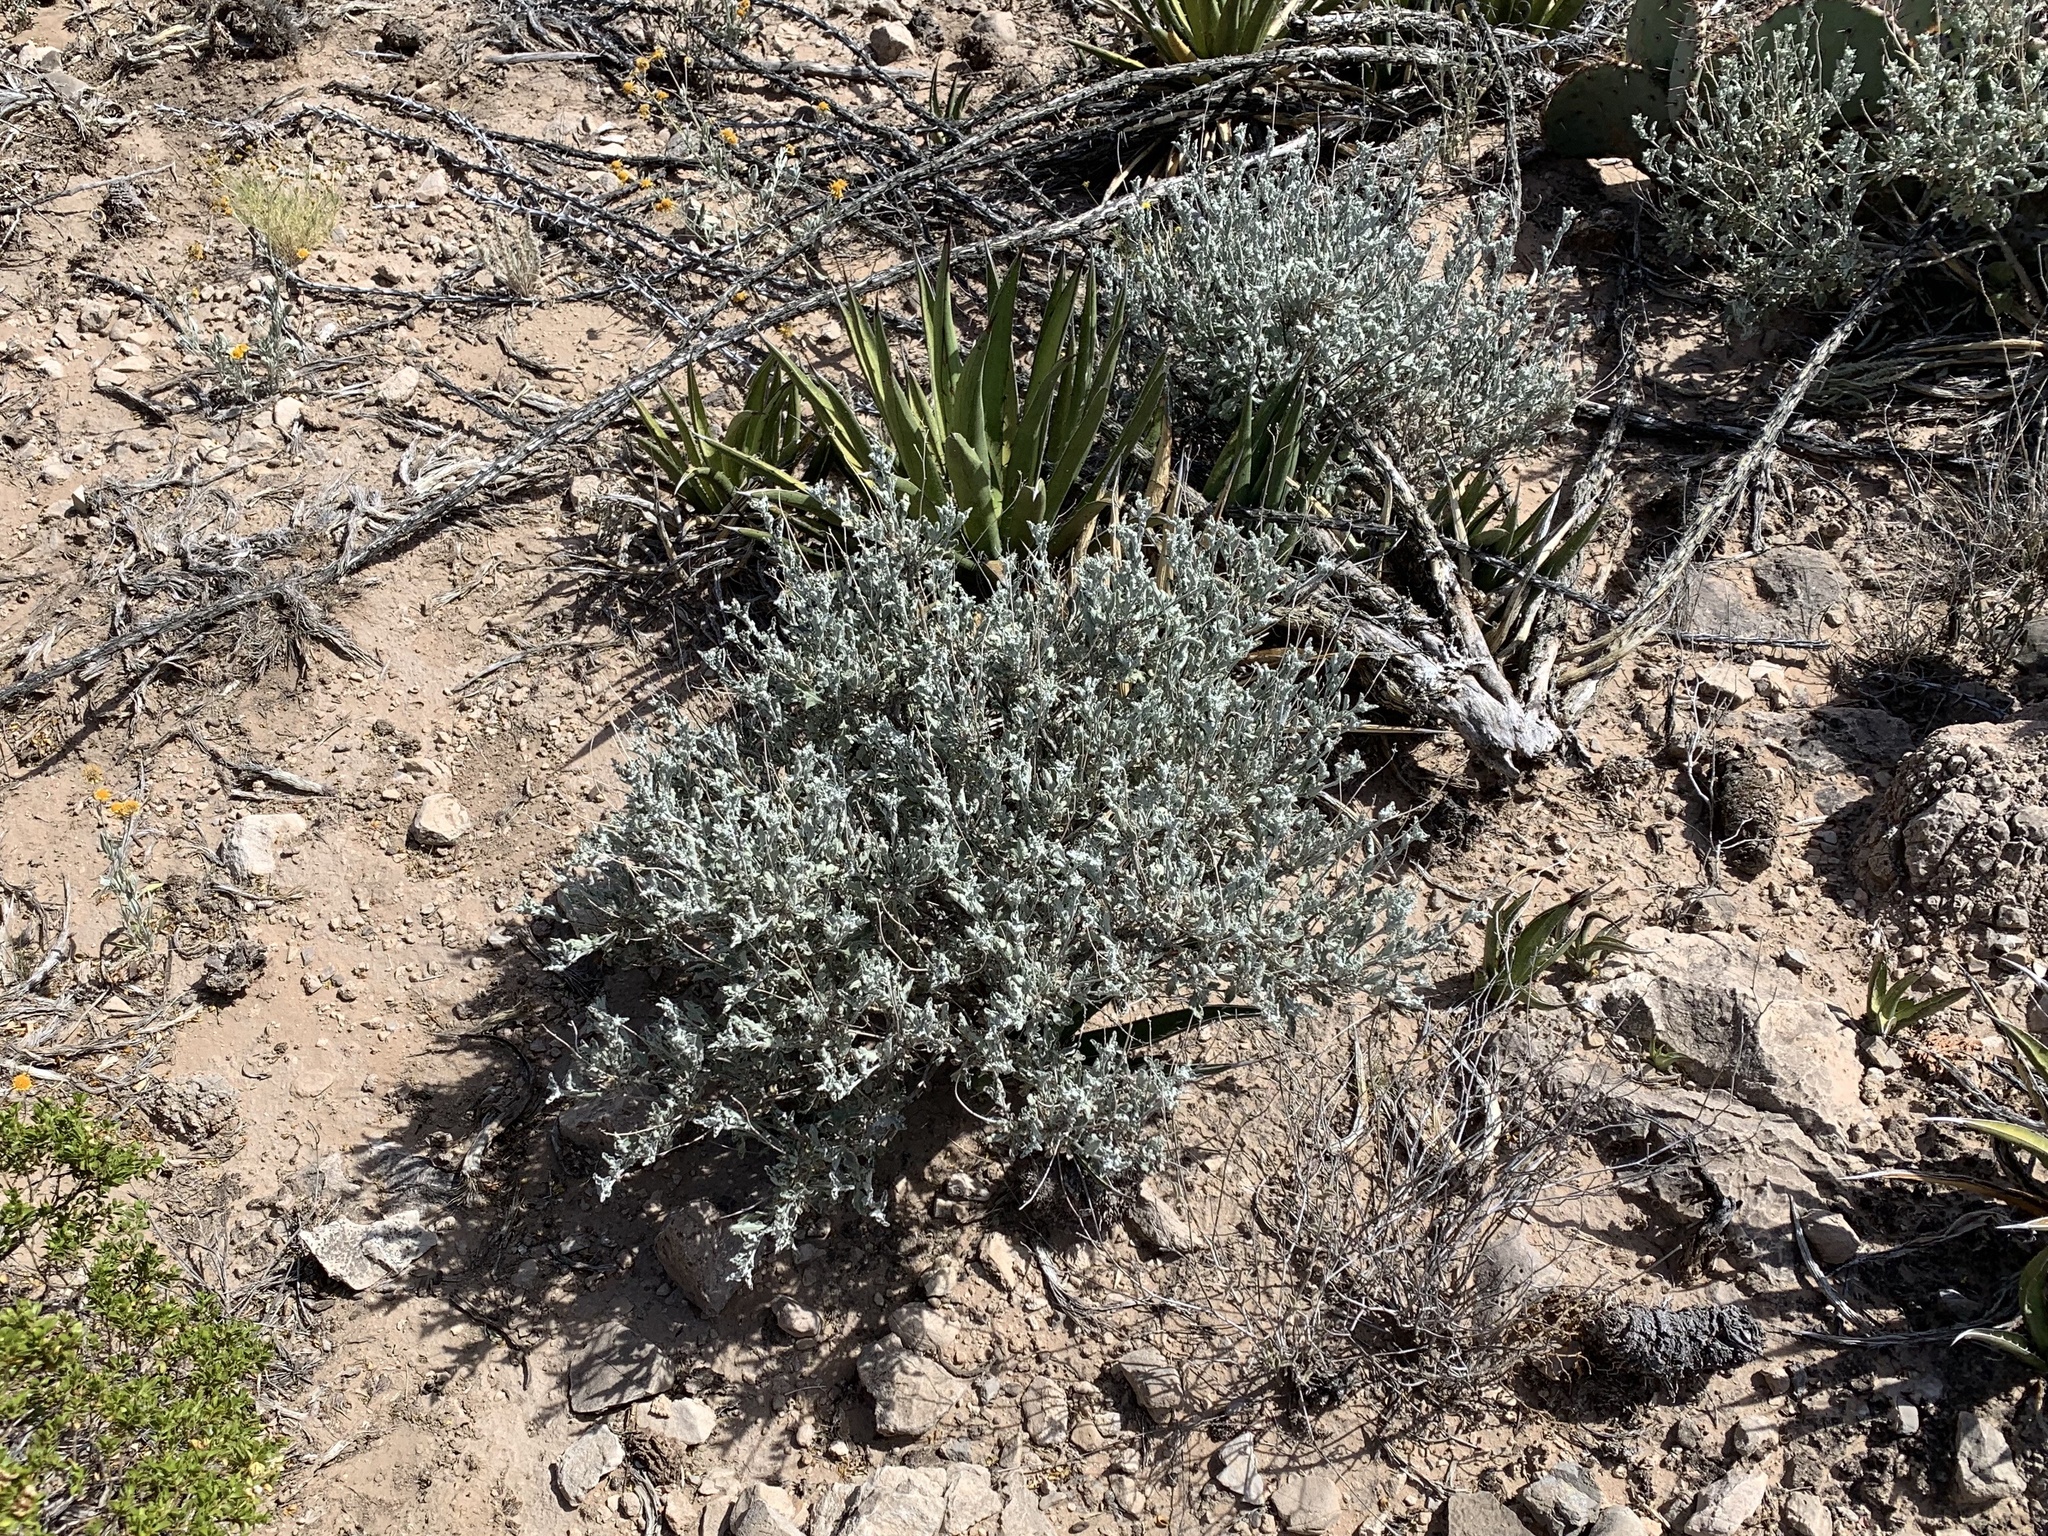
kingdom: Plantae
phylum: Tracheophyta
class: Magnoliopsida
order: Asterales
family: Asteraceae
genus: Parthenium
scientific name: Parthenium incanum
